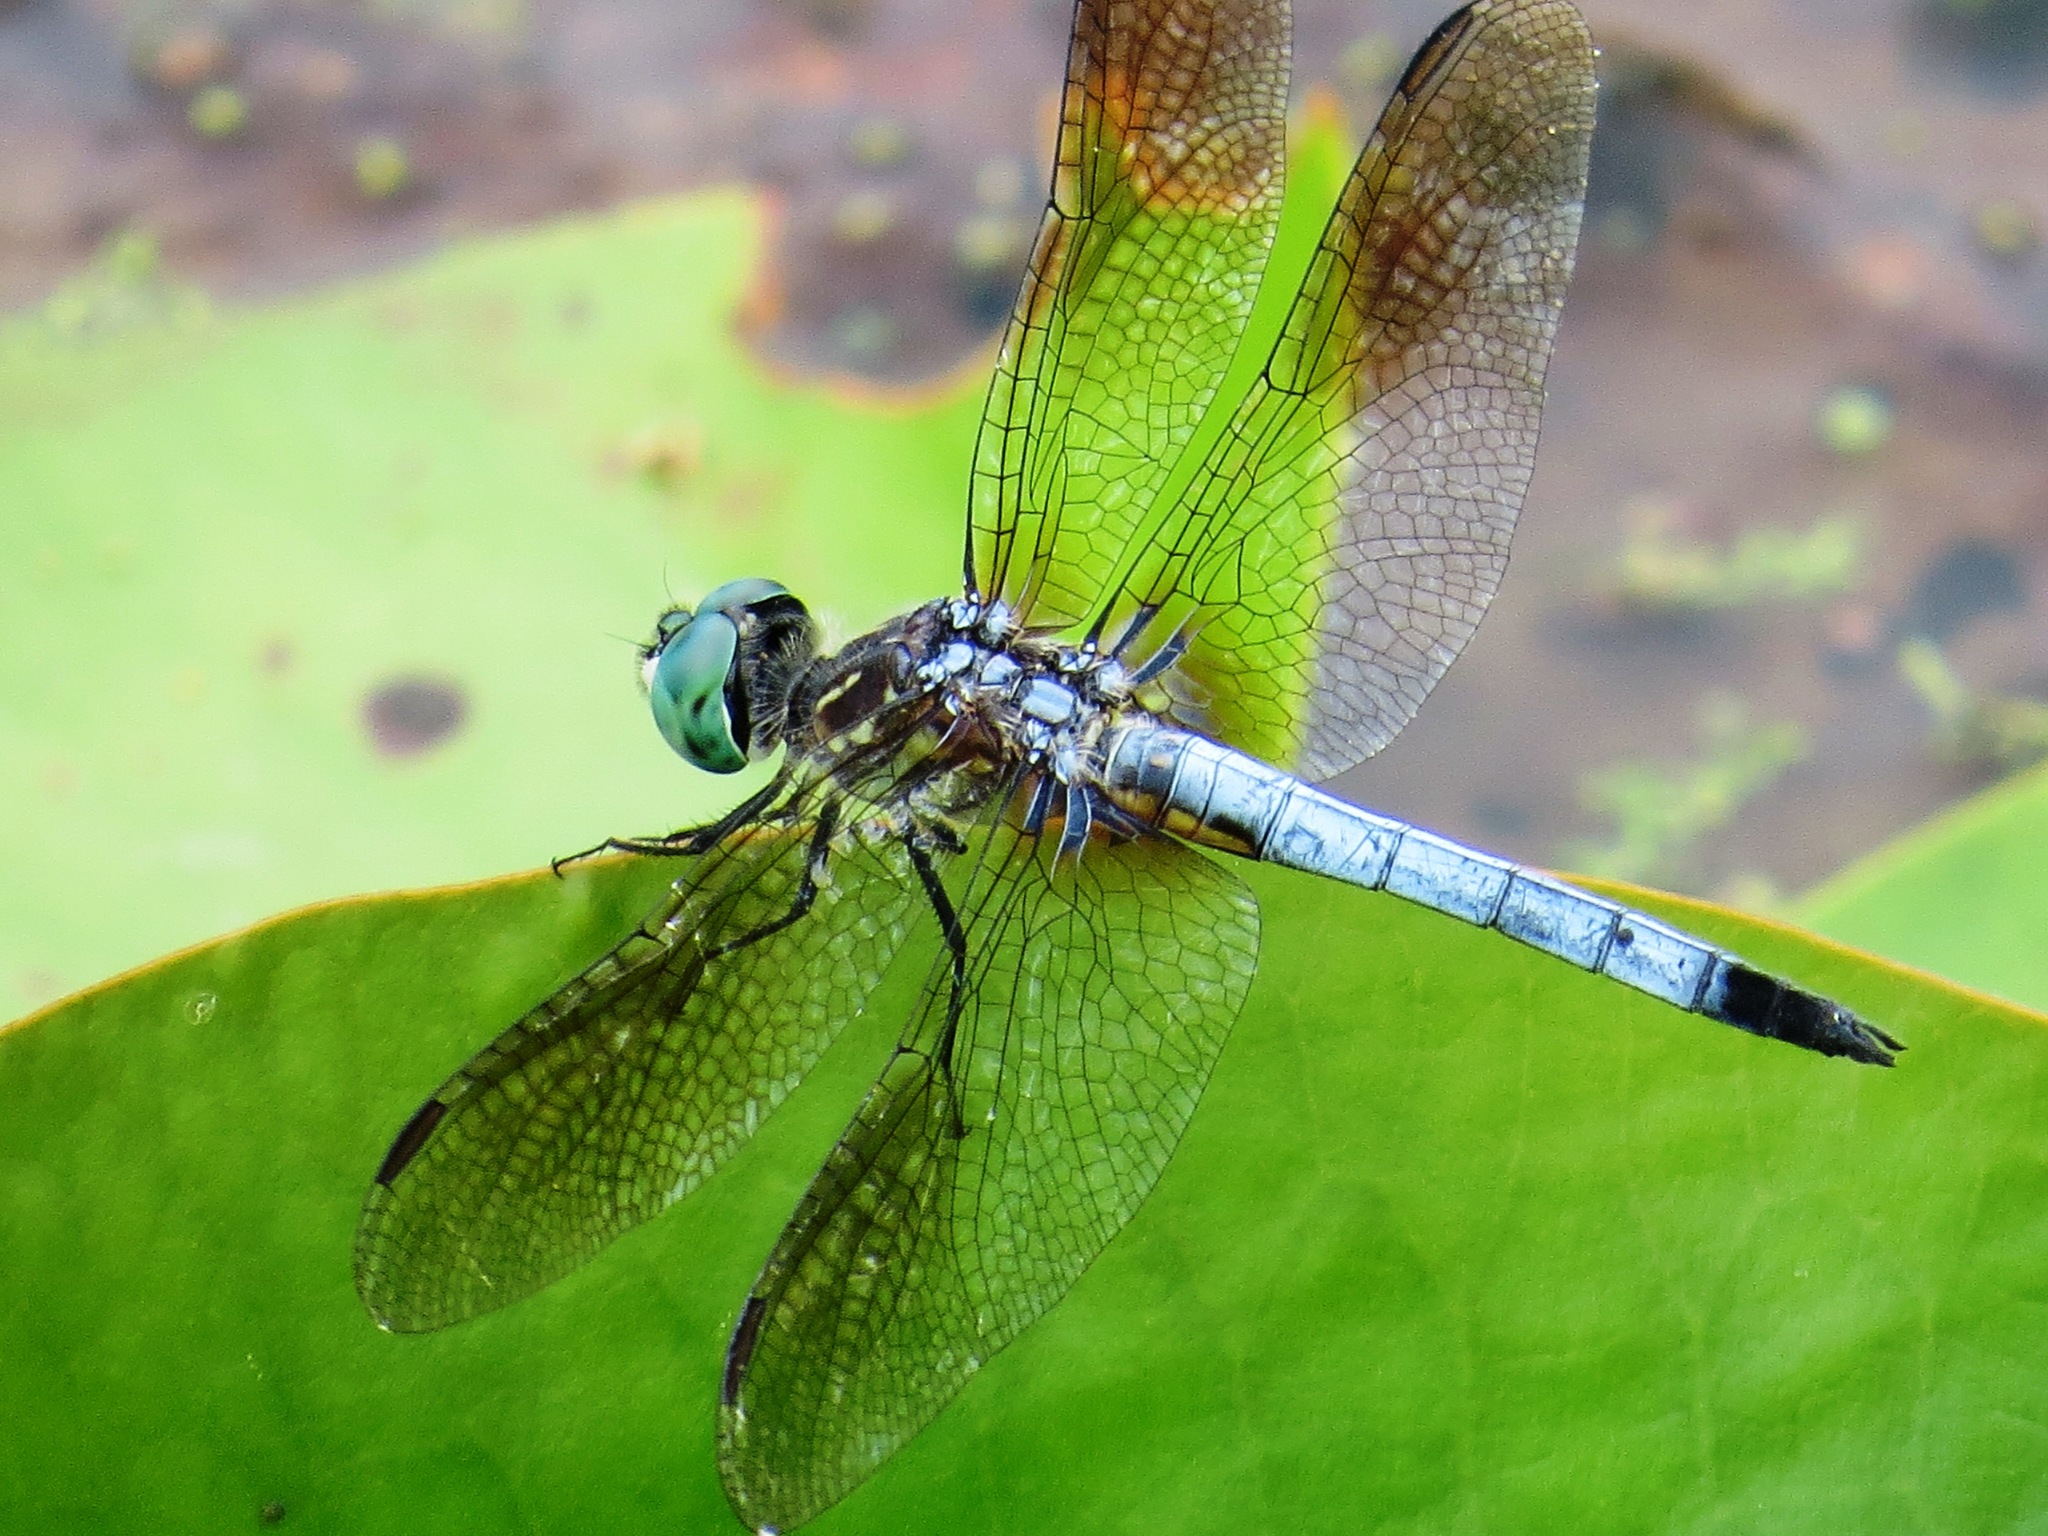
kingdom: Animalia
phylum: Arthropoda
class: Insecta
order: Odonata
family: Libellulidae
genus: Pachydiplax
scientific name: Pachydiplax longipennis
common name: Blue dasher
